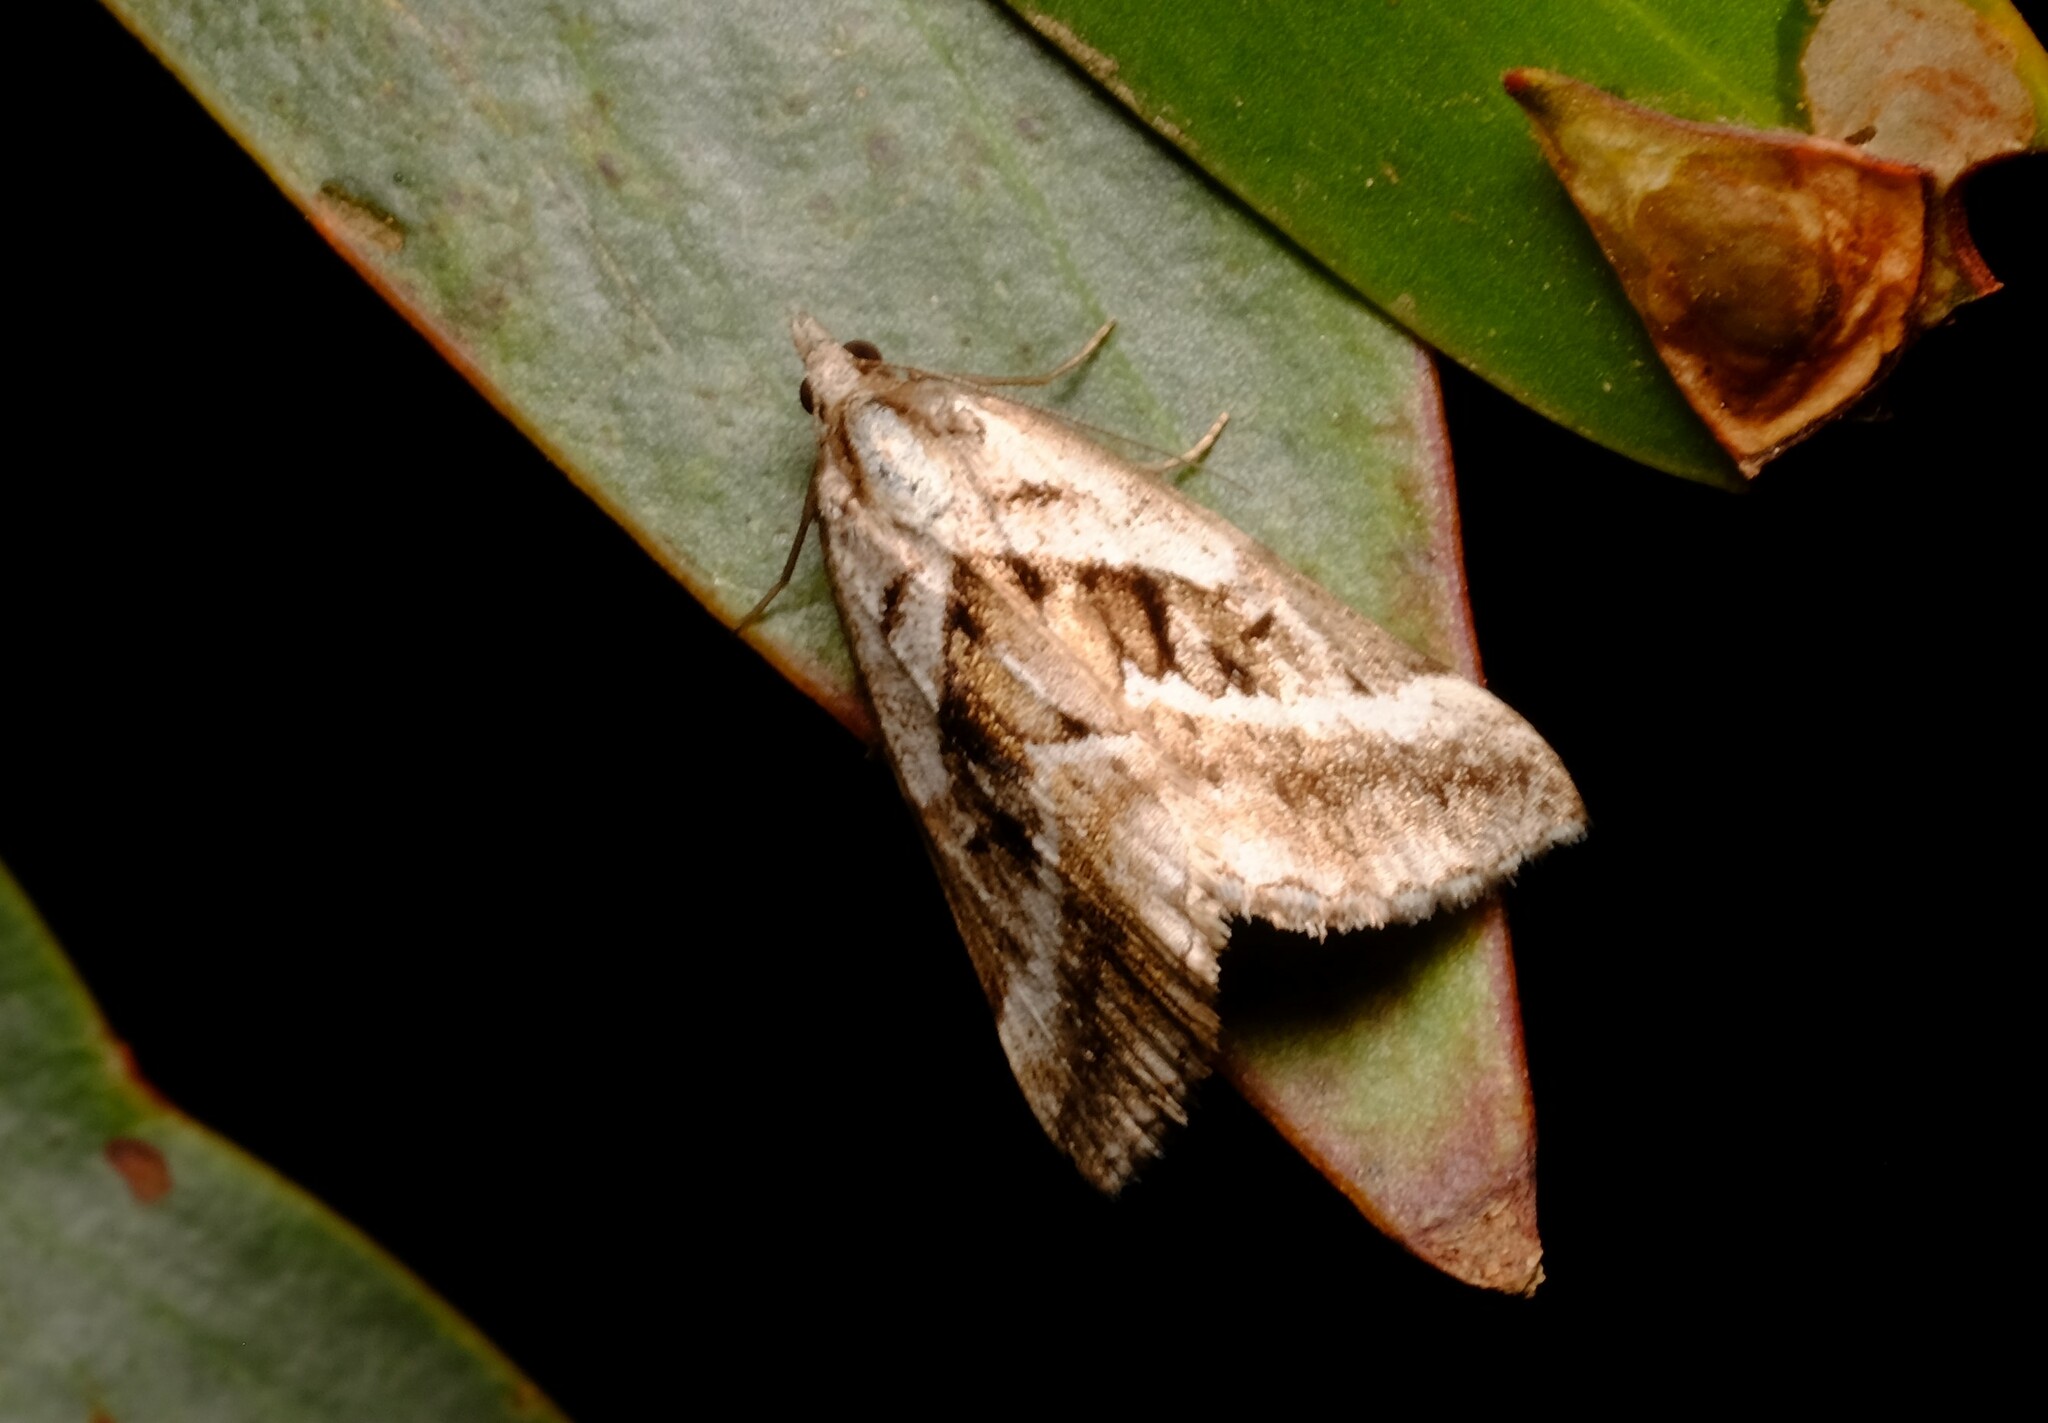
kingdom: Animalia
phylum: Arthropoda
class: Insecta
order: Lepidoptera
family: Geometridae
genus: Dichromodes
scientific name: Dichromodes stilbiata
